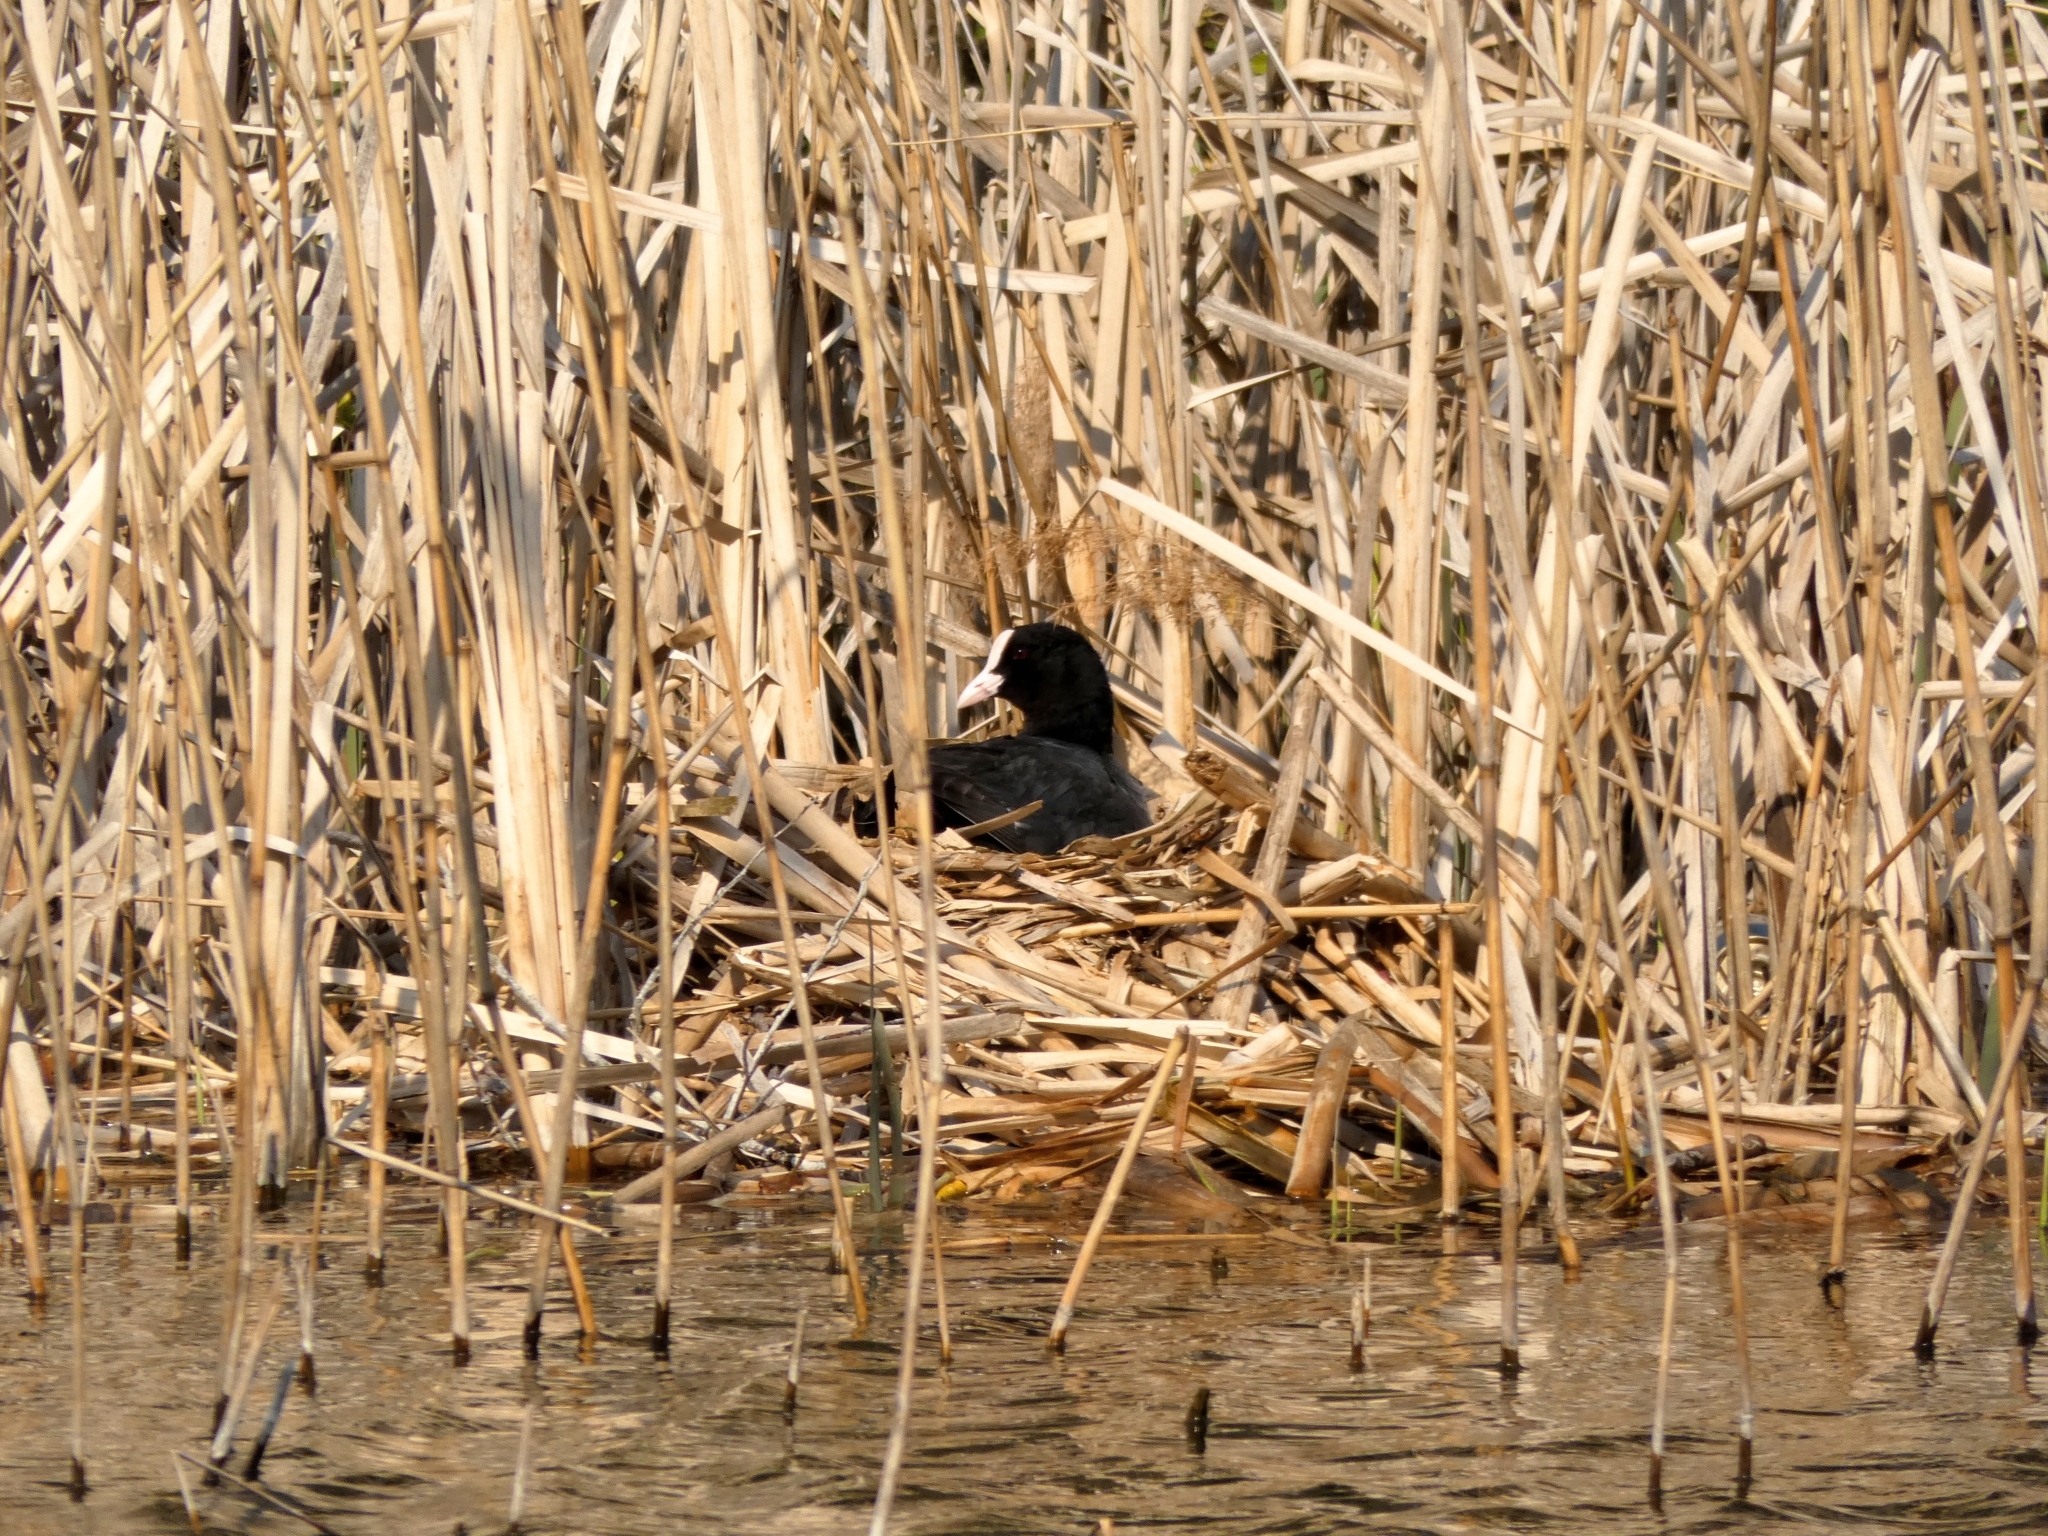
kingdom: Animalia
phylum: Chordata
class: Aves
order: Gruiformes
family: Rallidae
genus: Fulica
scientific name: Fulica atra
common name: Eurasian coot
